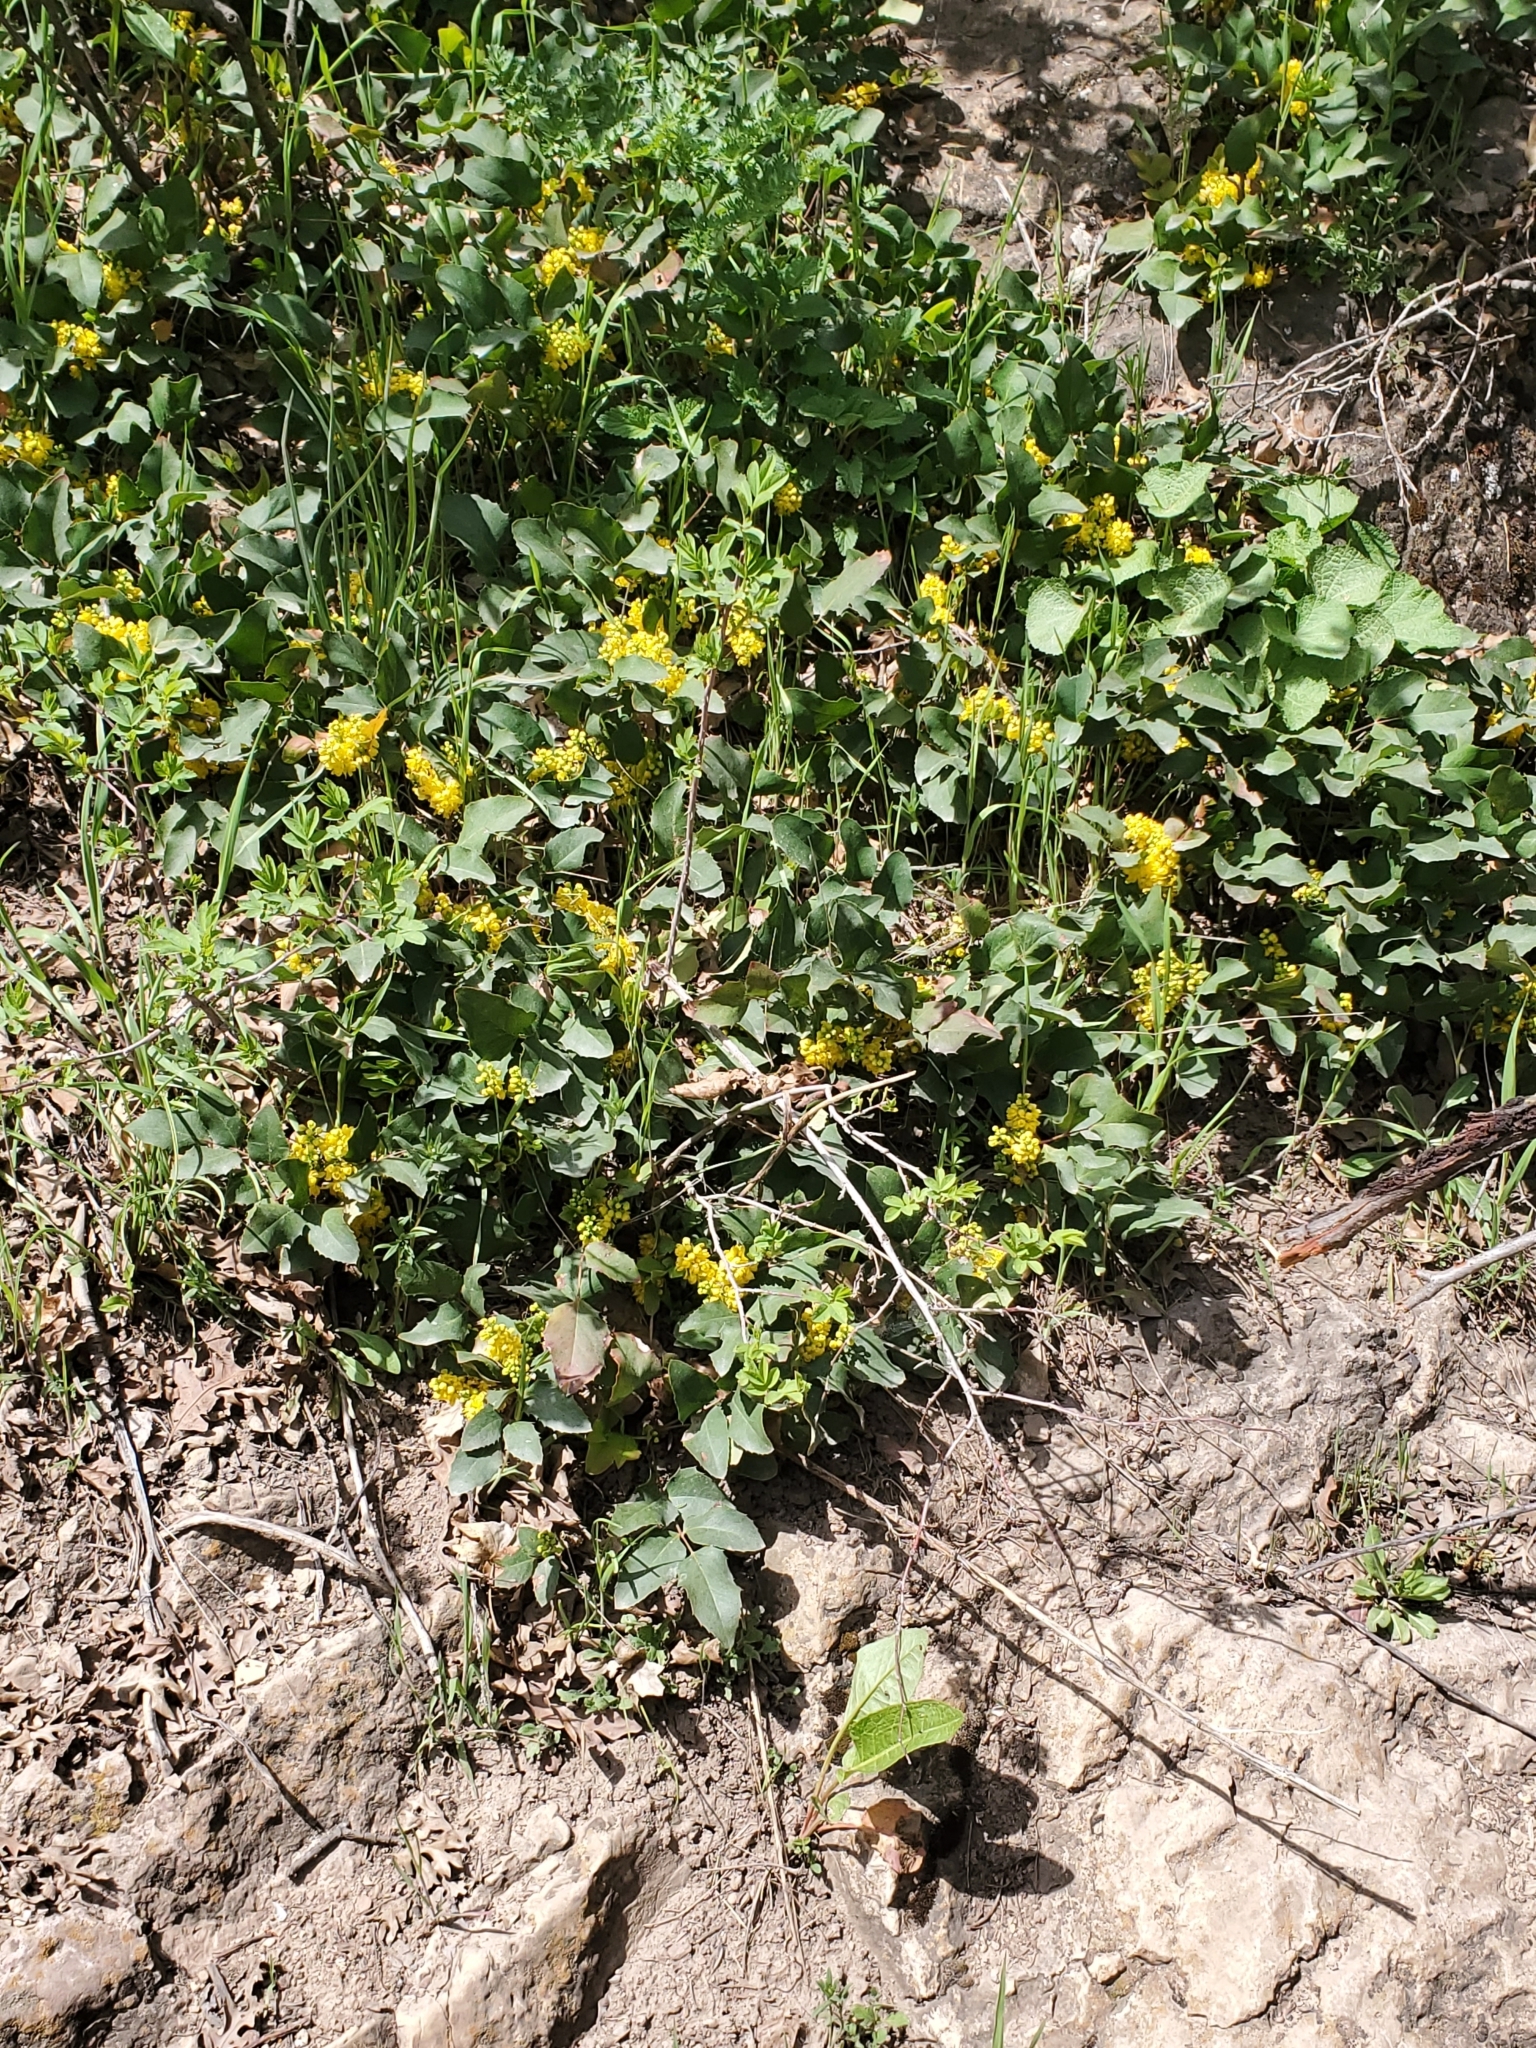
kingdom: Plantae
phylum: Tracheophyta
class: Magnoliopsida
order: Ranunculales
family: Berberidaceae
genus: Mahonia
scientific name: Mahonia repens
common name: Creeping oregon-grape
